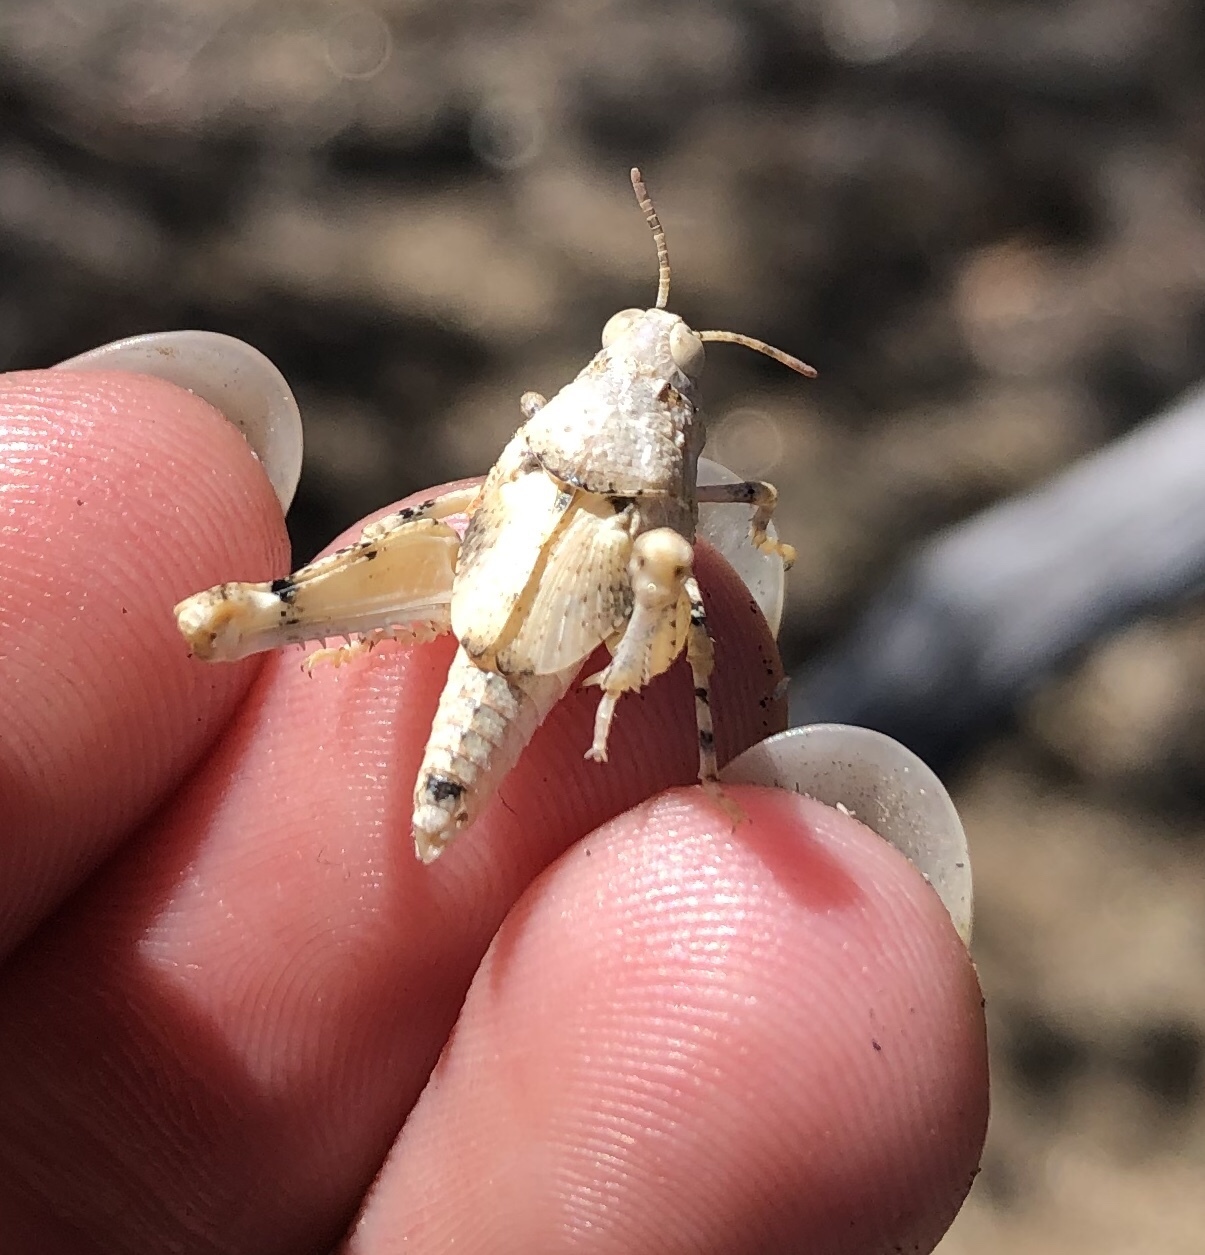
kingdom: Animalia
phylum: Arthropoda
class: Insecta
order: Orthoptera
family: Acrididae
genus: Cibolacris
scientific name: Cibolacris parviceps
